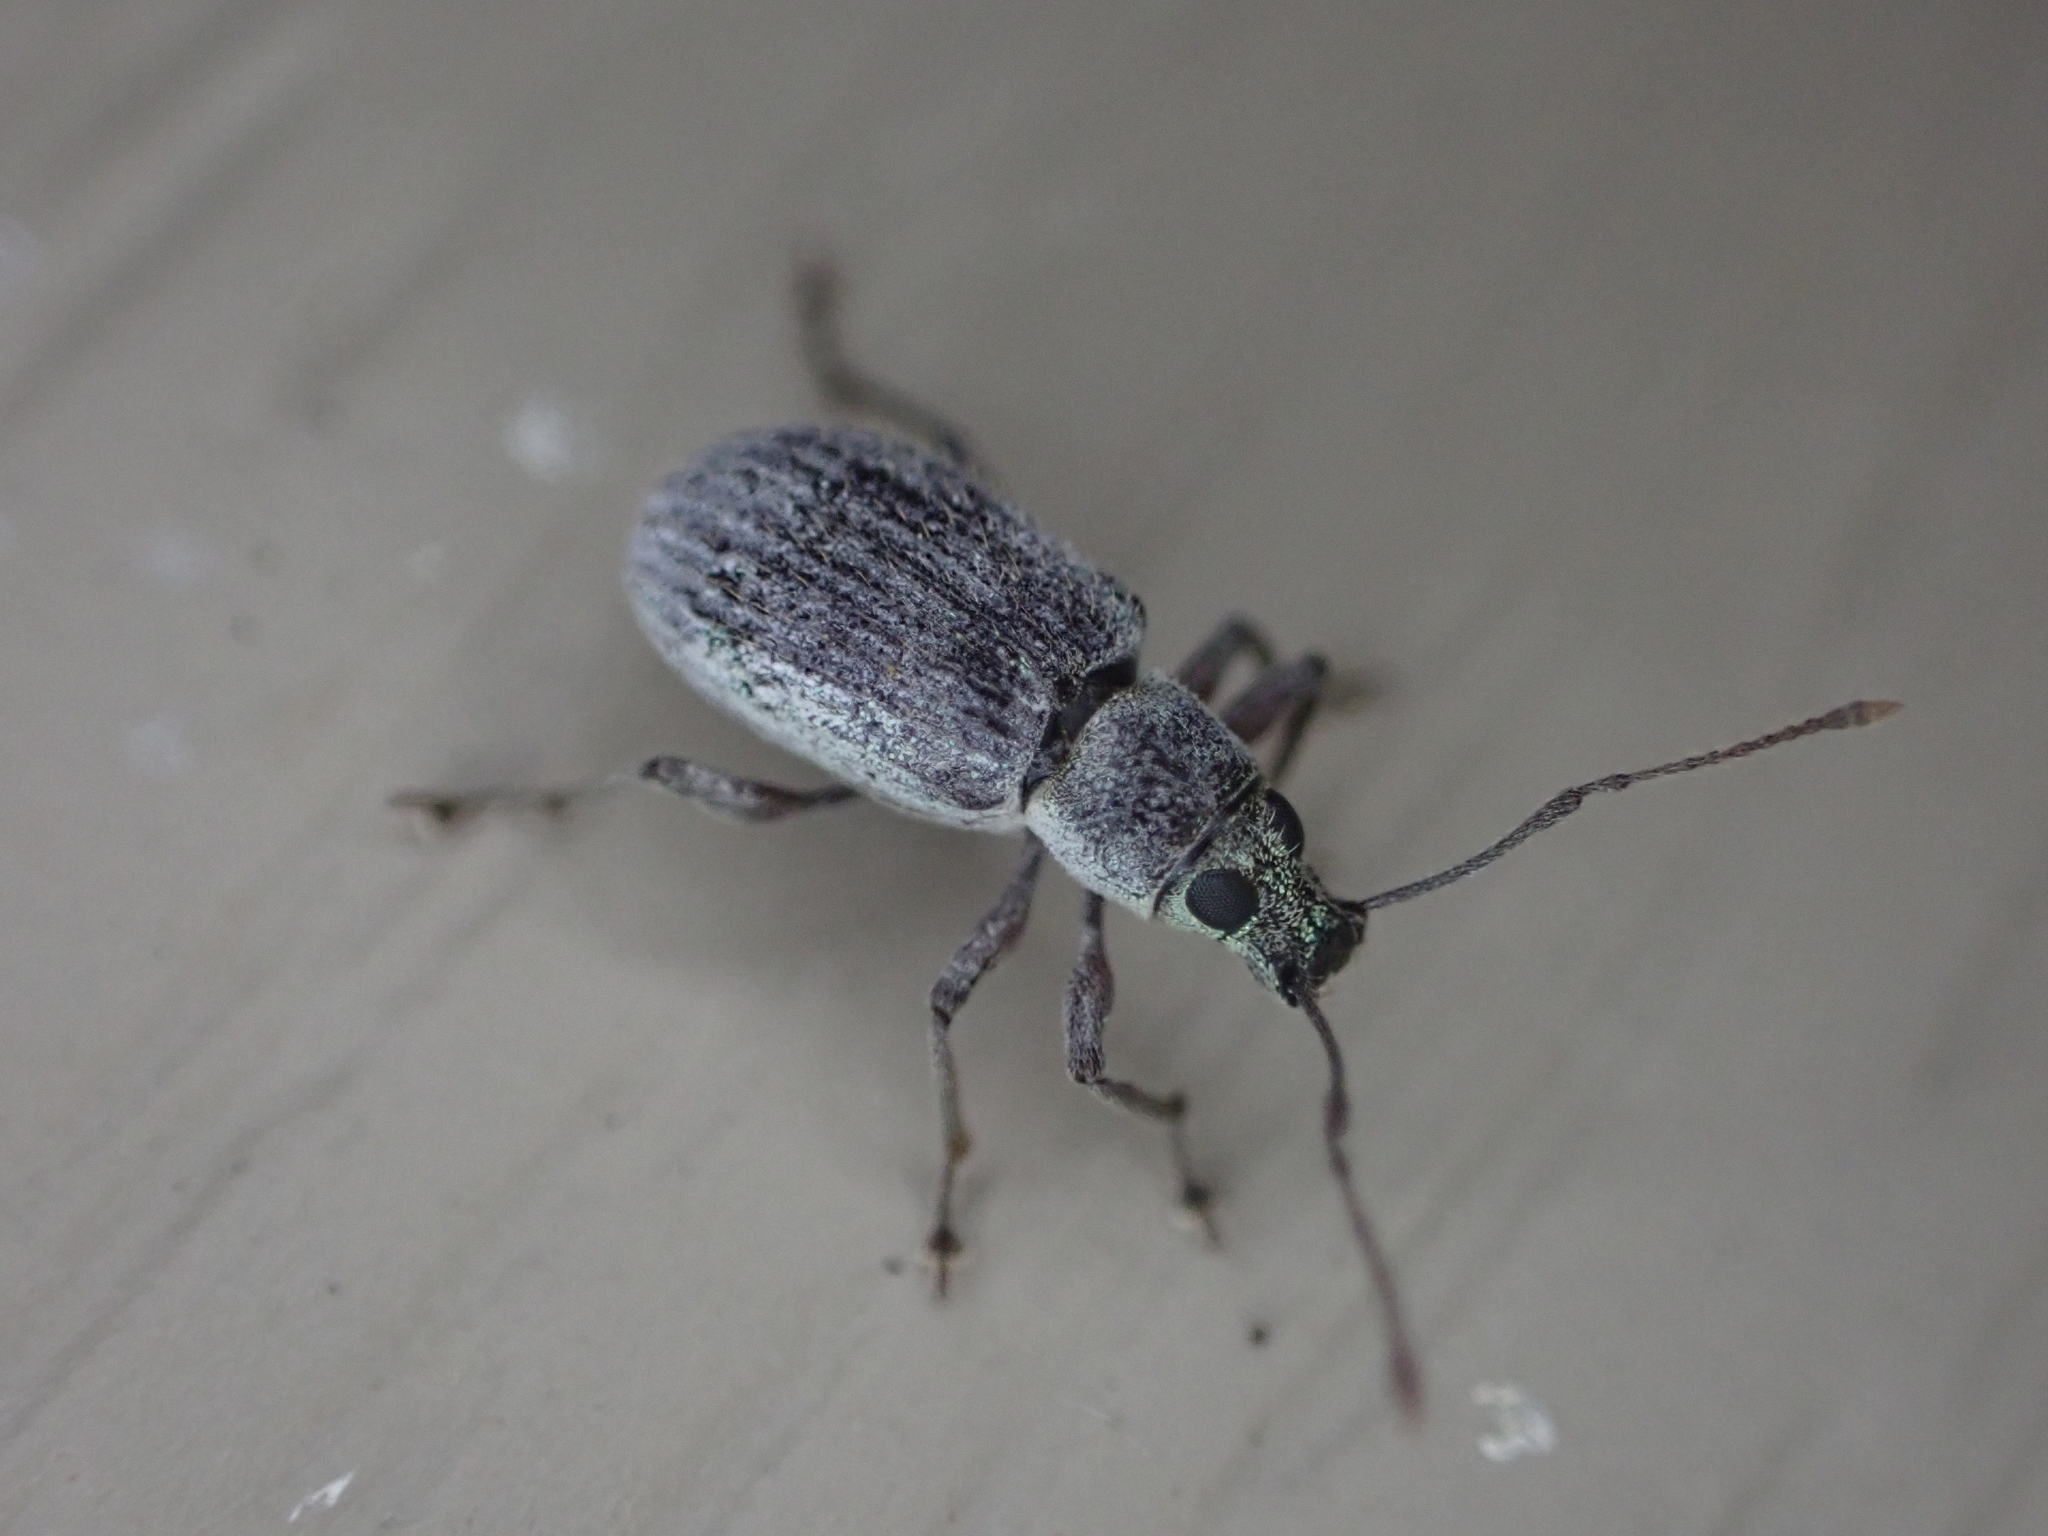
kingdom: Animalia
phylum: Arthropoda
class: Insecta
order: Coleoptera
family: Curculionidae
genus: Cyrtepistomus
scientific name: Cyrtepistomus castaneus
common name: Weevil
